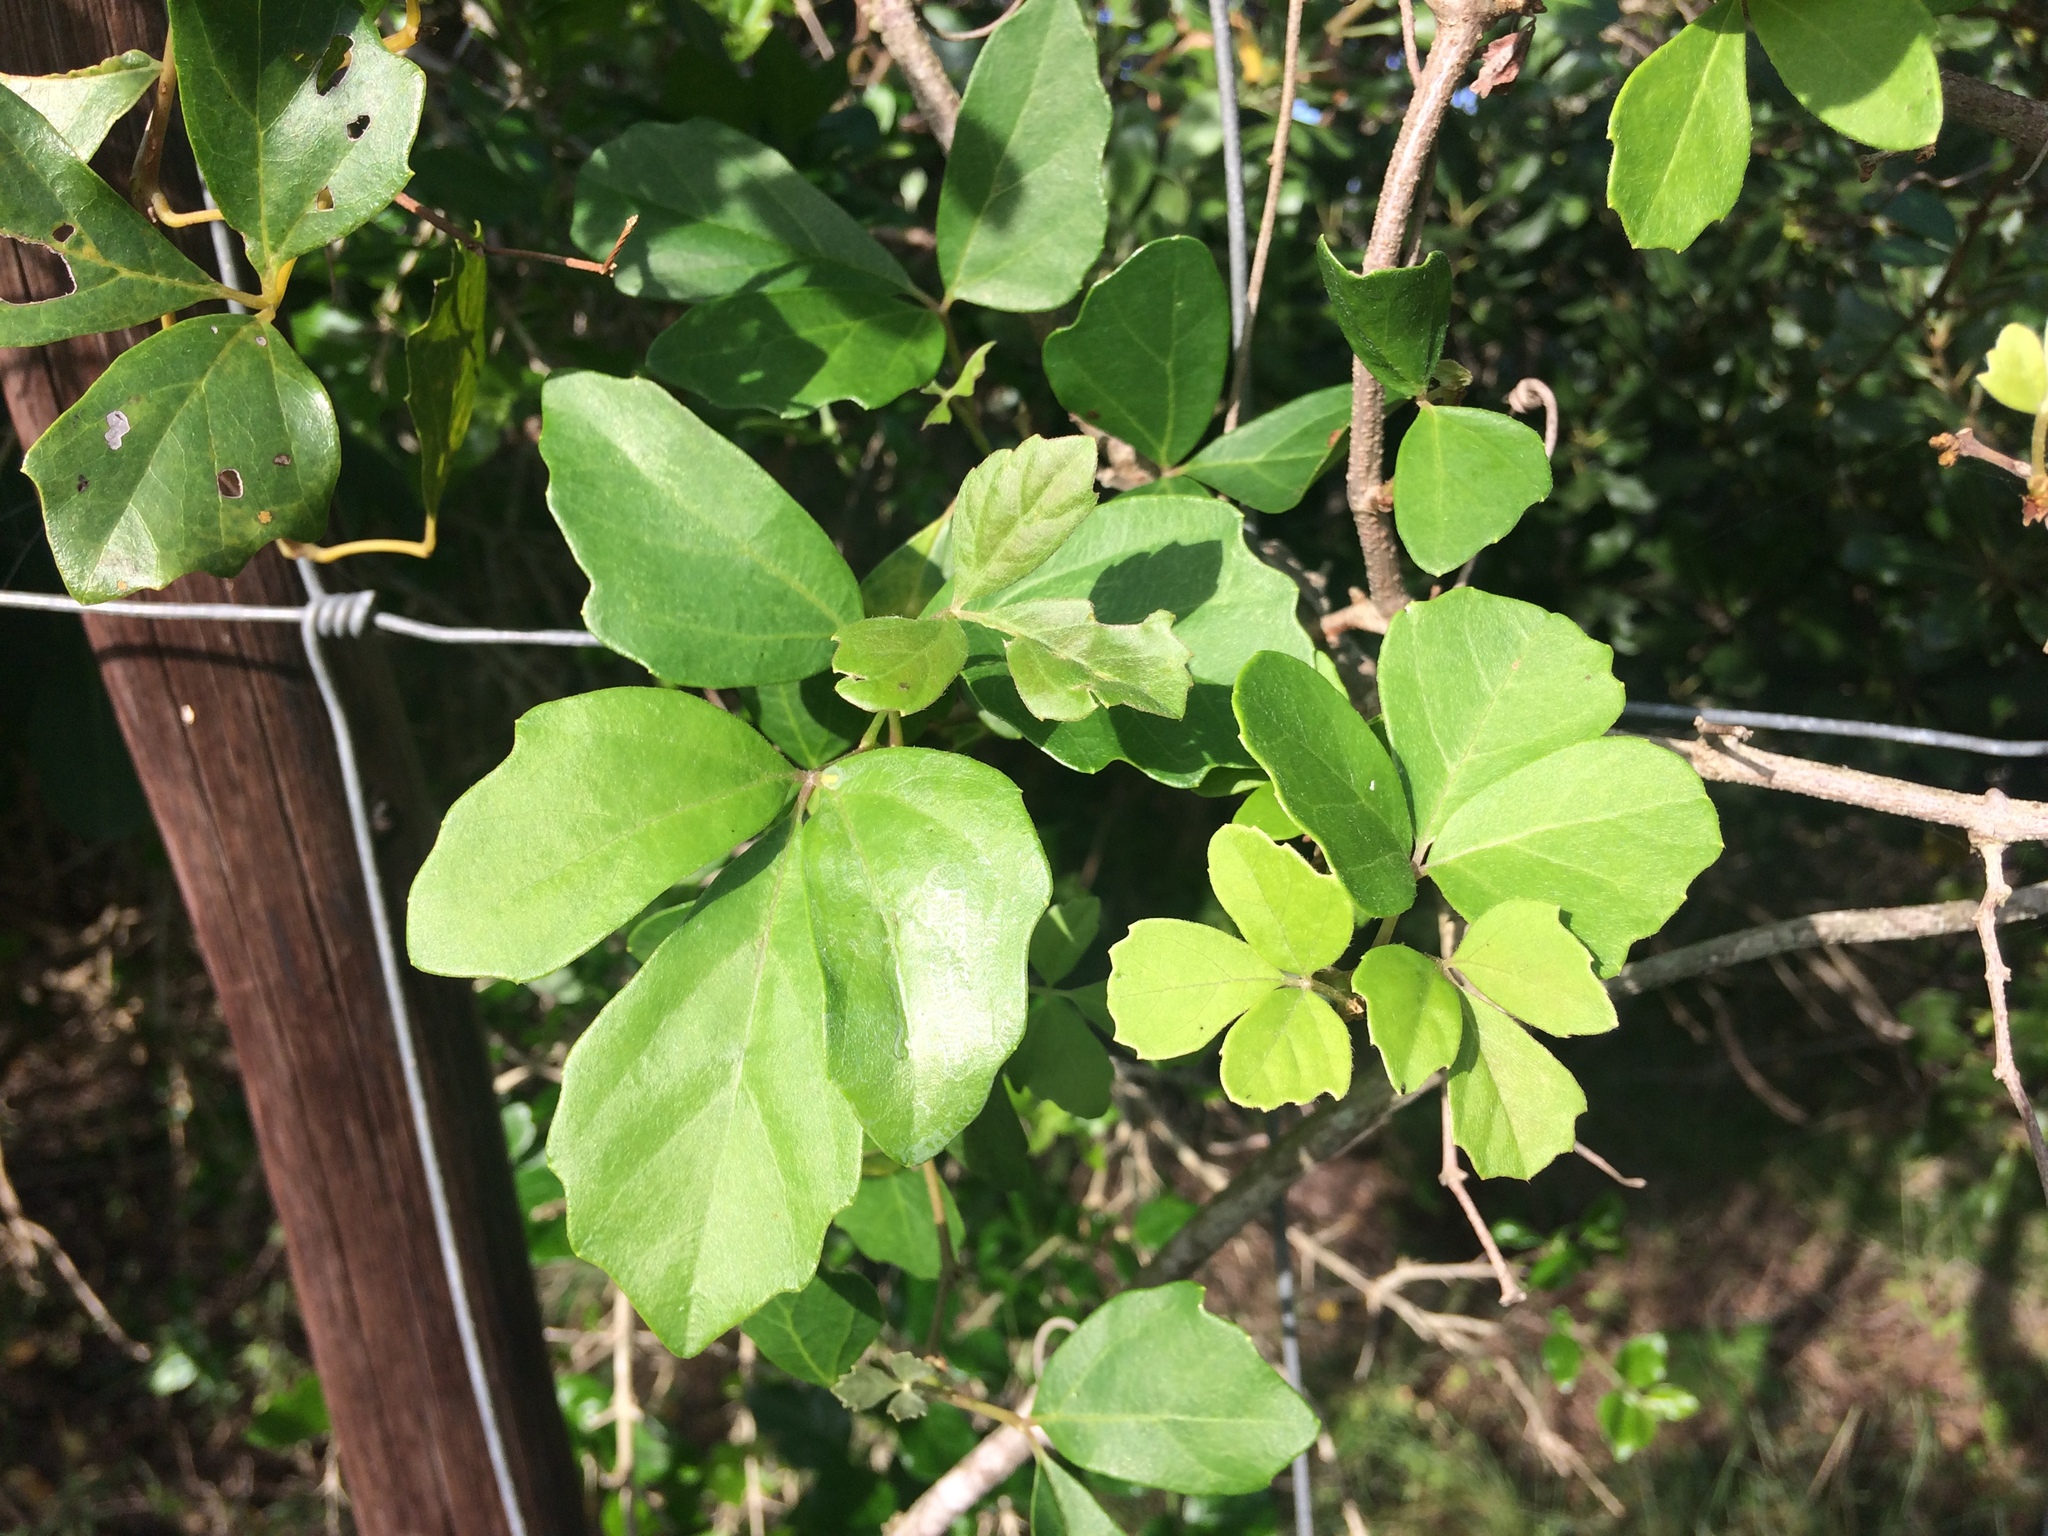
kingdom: Plantae
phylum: Tracheophyta
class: Magnoliopsida
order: Vitales
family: Vitaceae
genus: Rhoicissus
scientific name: Rhoicissus tridentata
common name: Common forest grape
